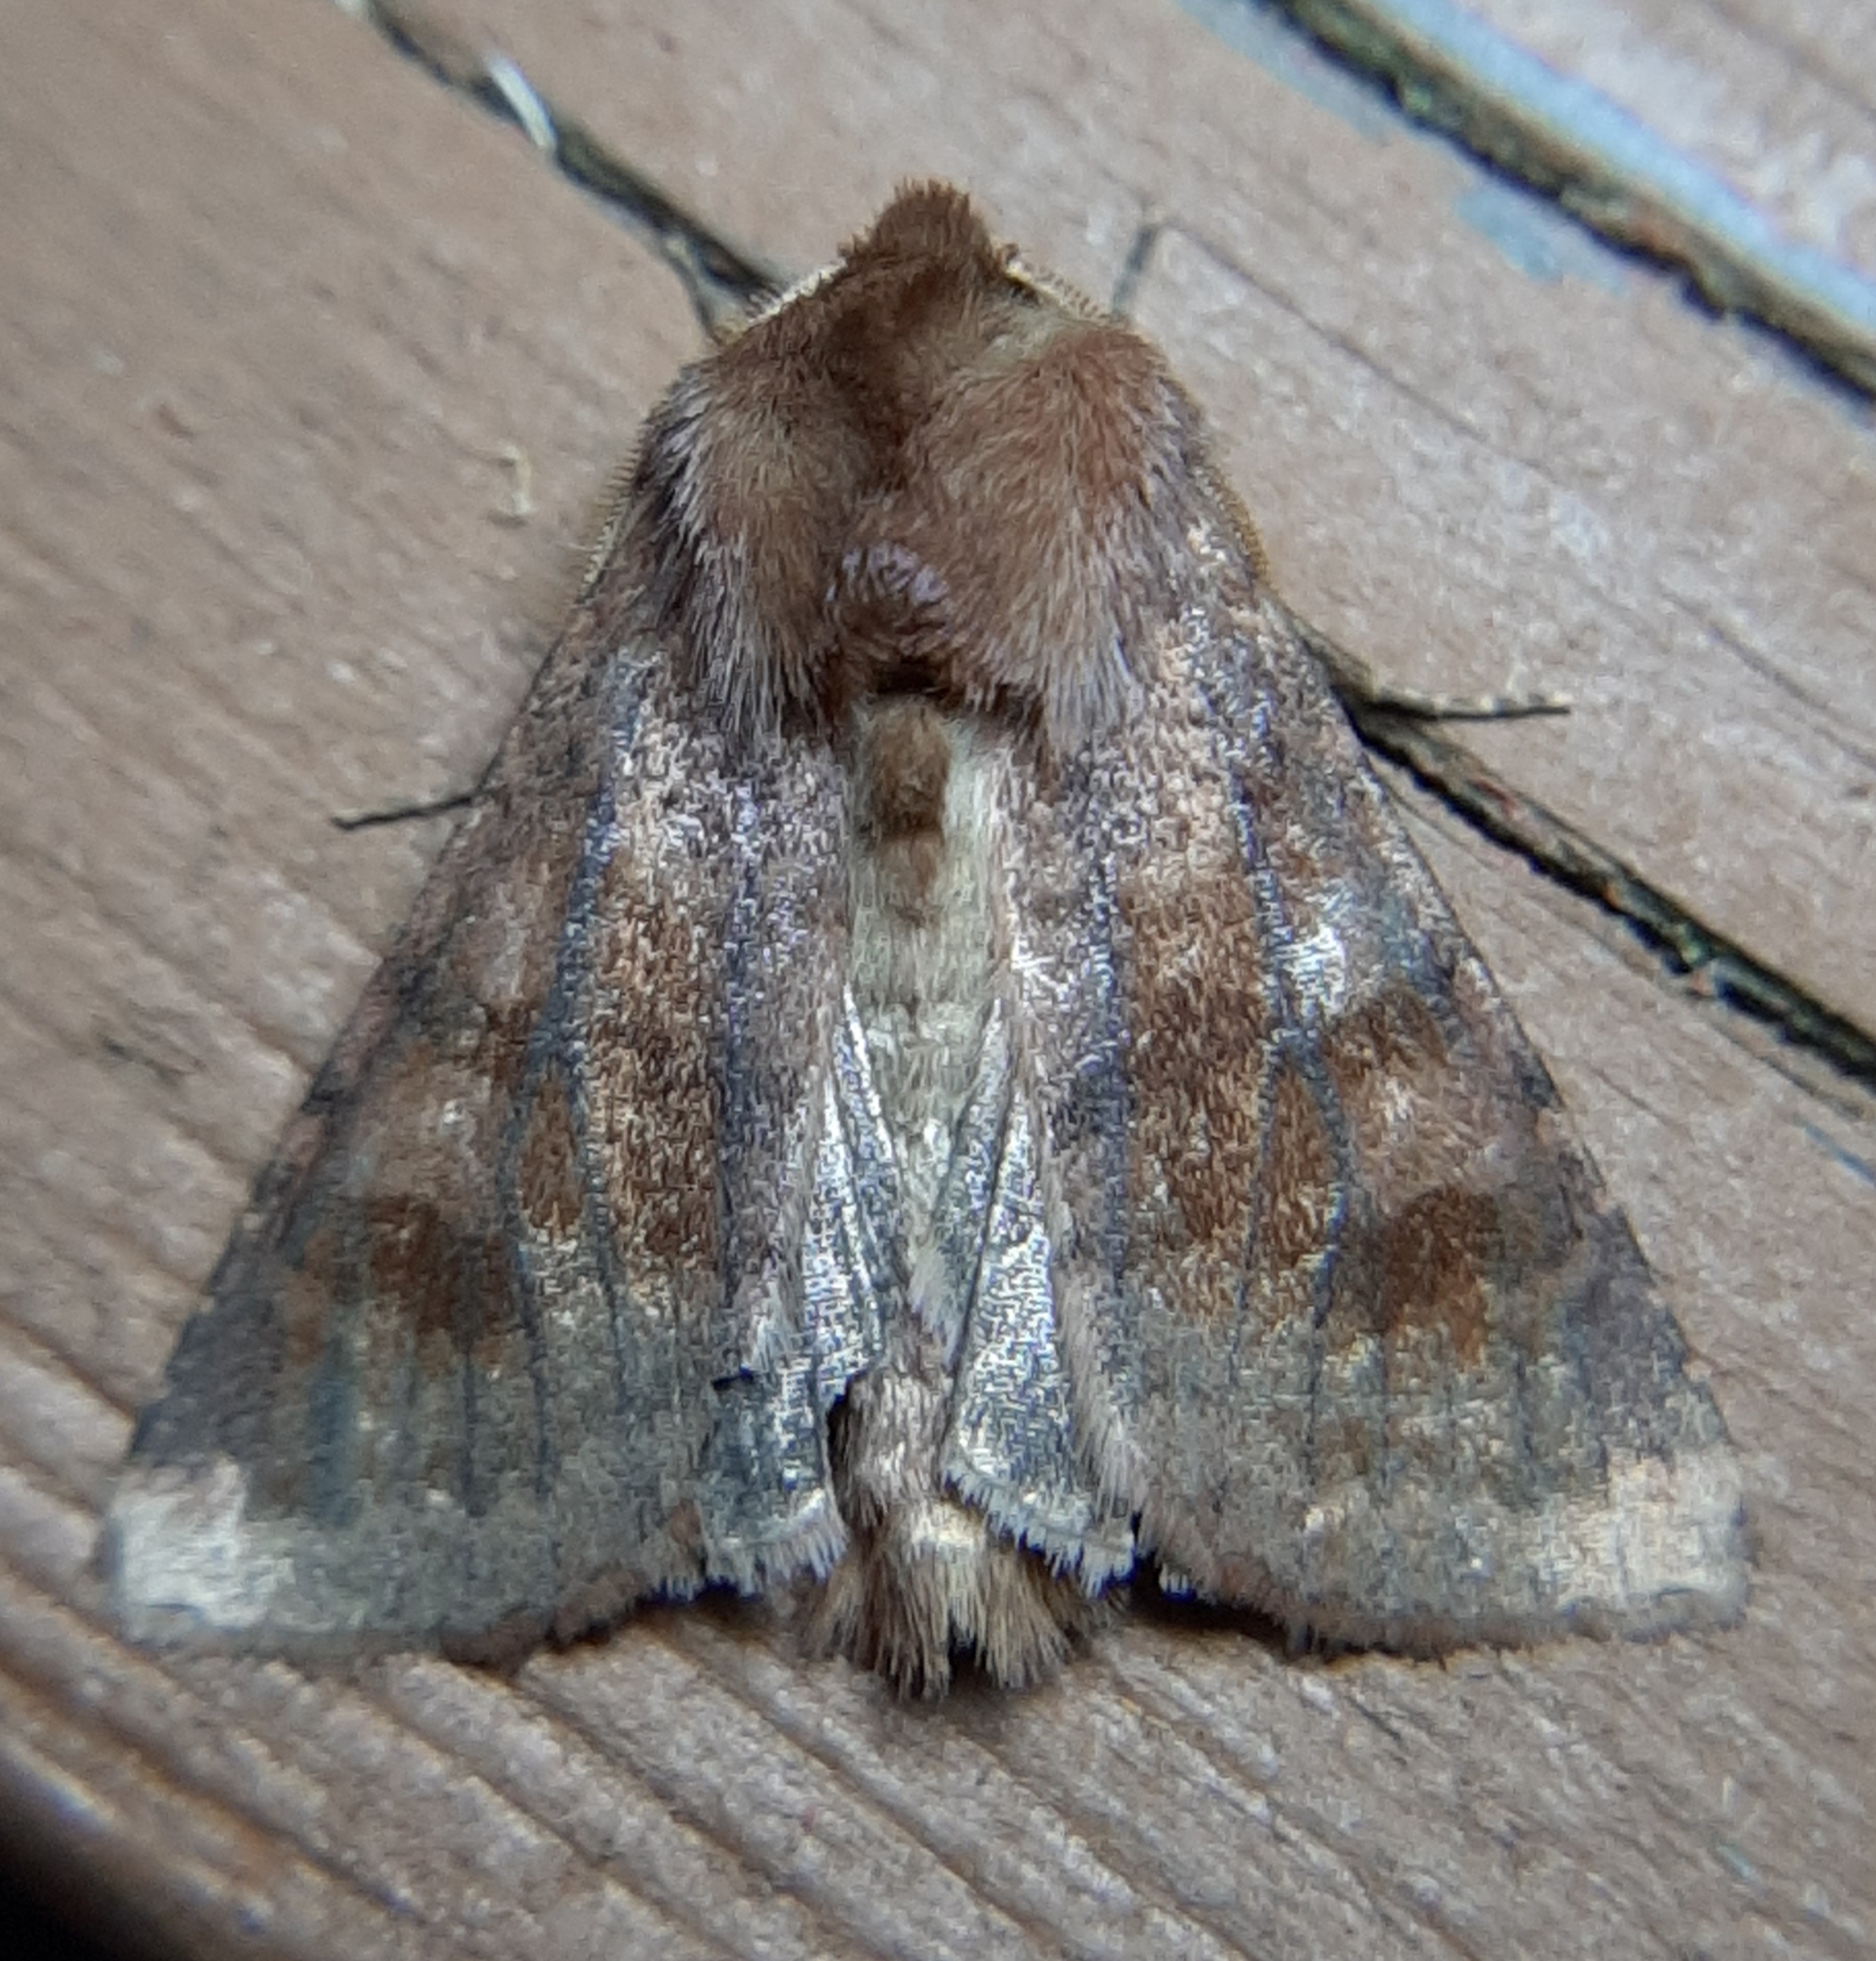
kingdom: Animalia
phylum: Arthropoda
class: Insecta
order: Lepidoptera
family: Noctuidae
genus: Nephelodes
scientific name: Nephelodes minians
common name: Bronzed cutworm
